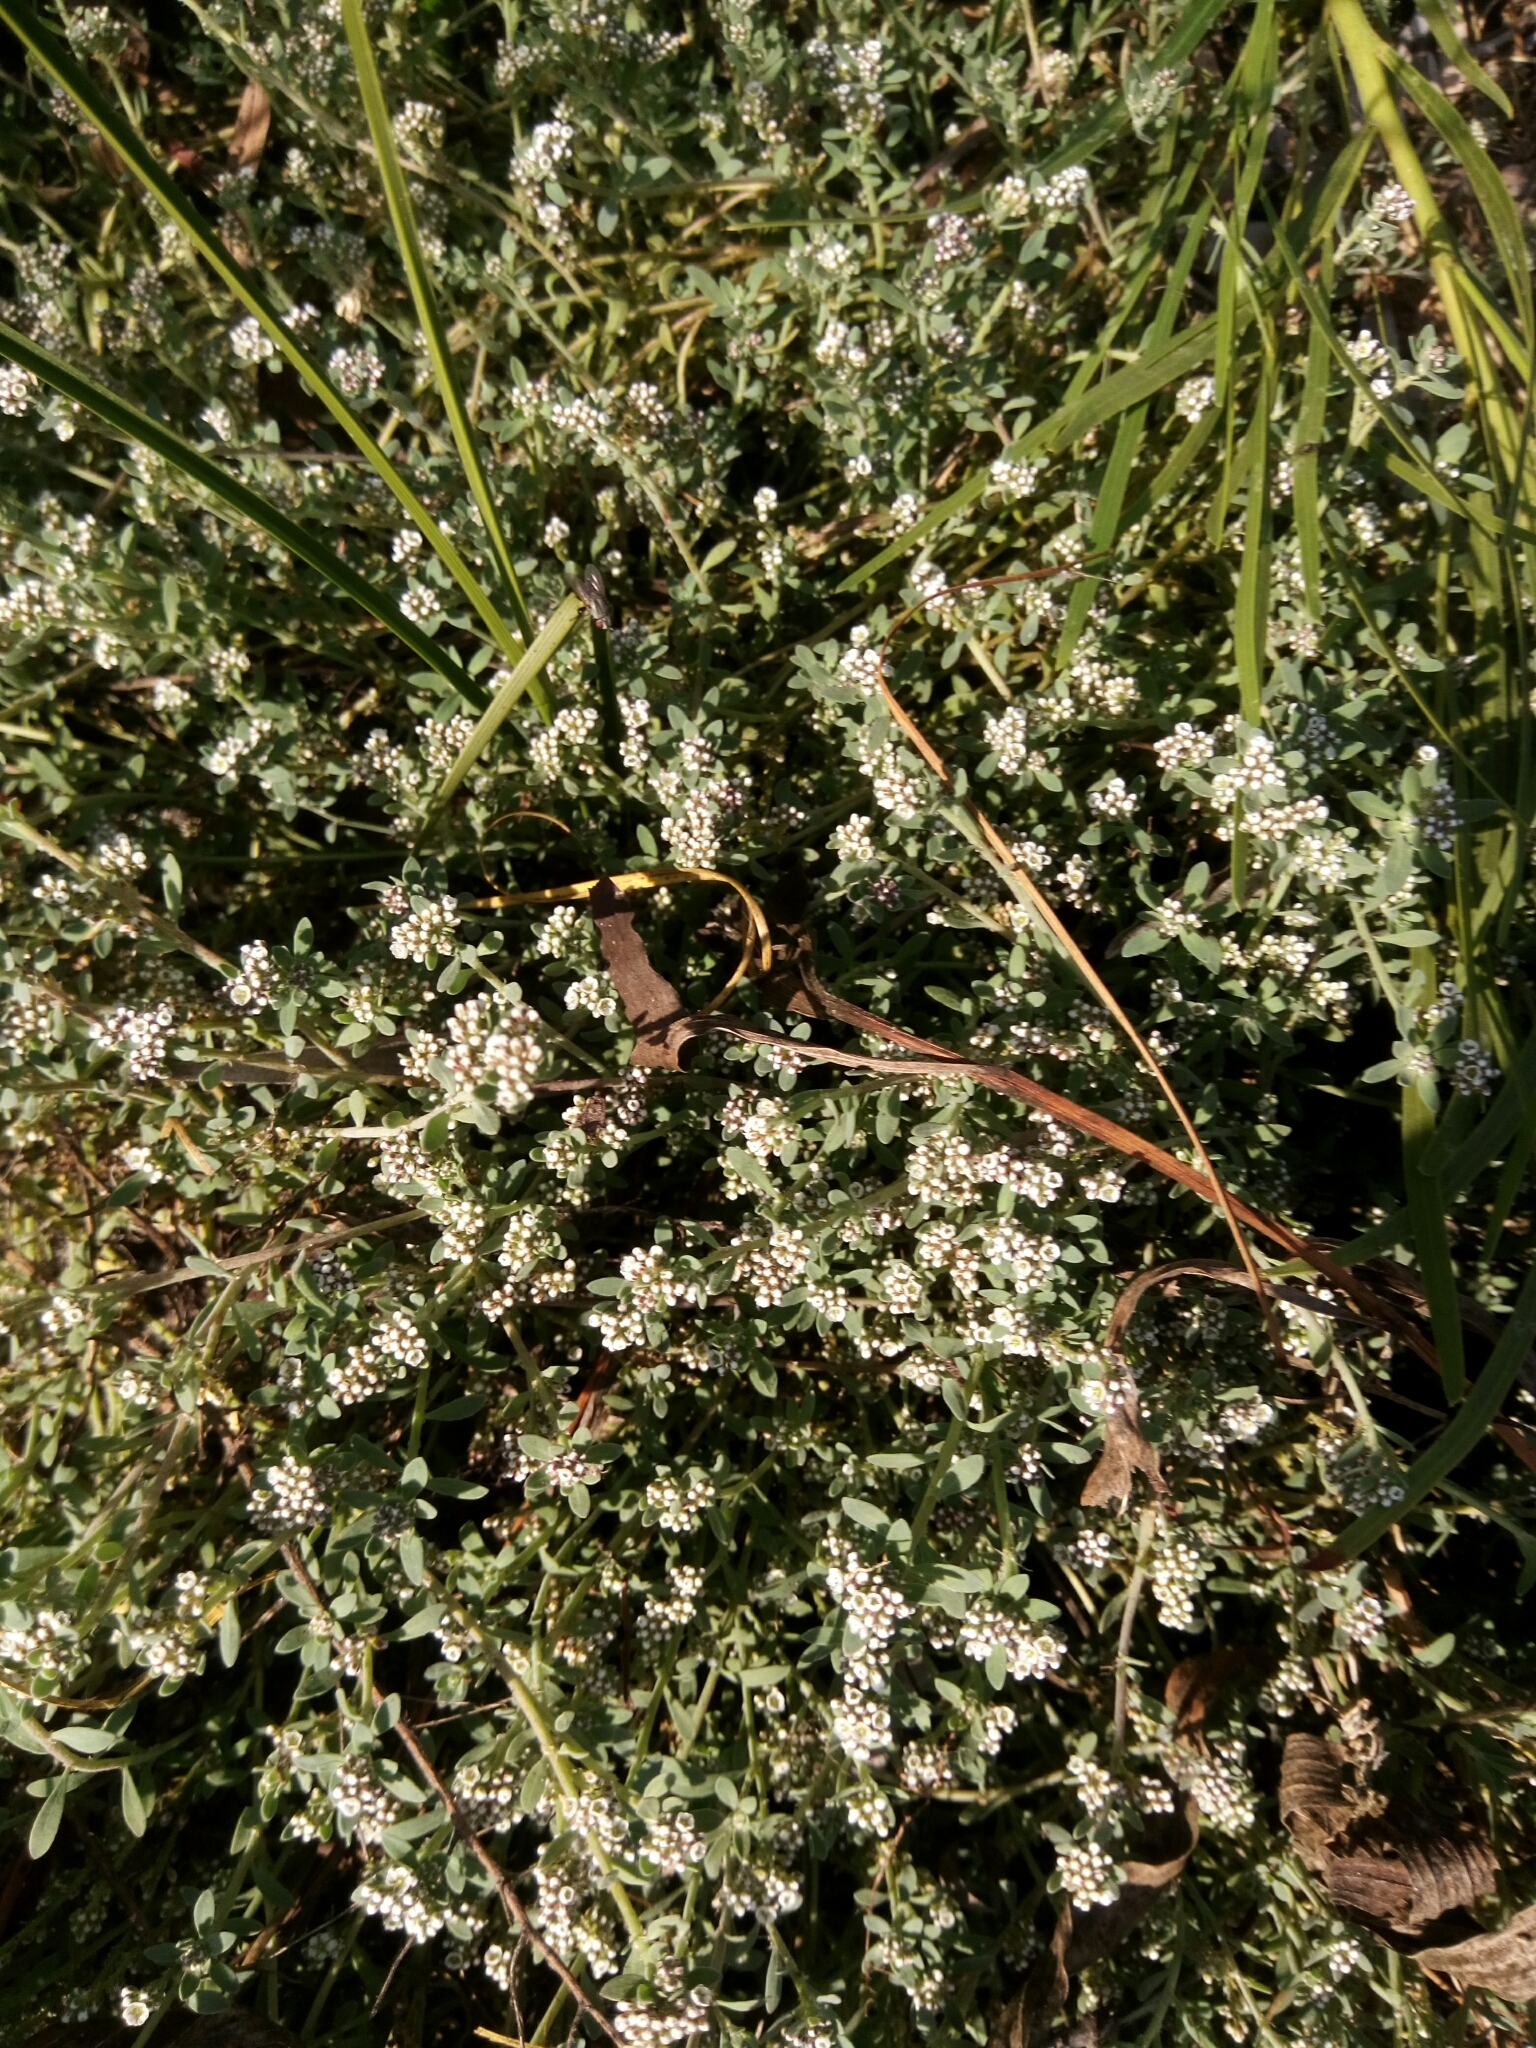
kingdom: Plantae
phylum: Tracheophyta
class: Magnoliopsida
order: Caryophyllales
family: Caryophyllaceae
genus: Corrigiola
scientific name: Corrigiola litoralis
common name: Strapwort
